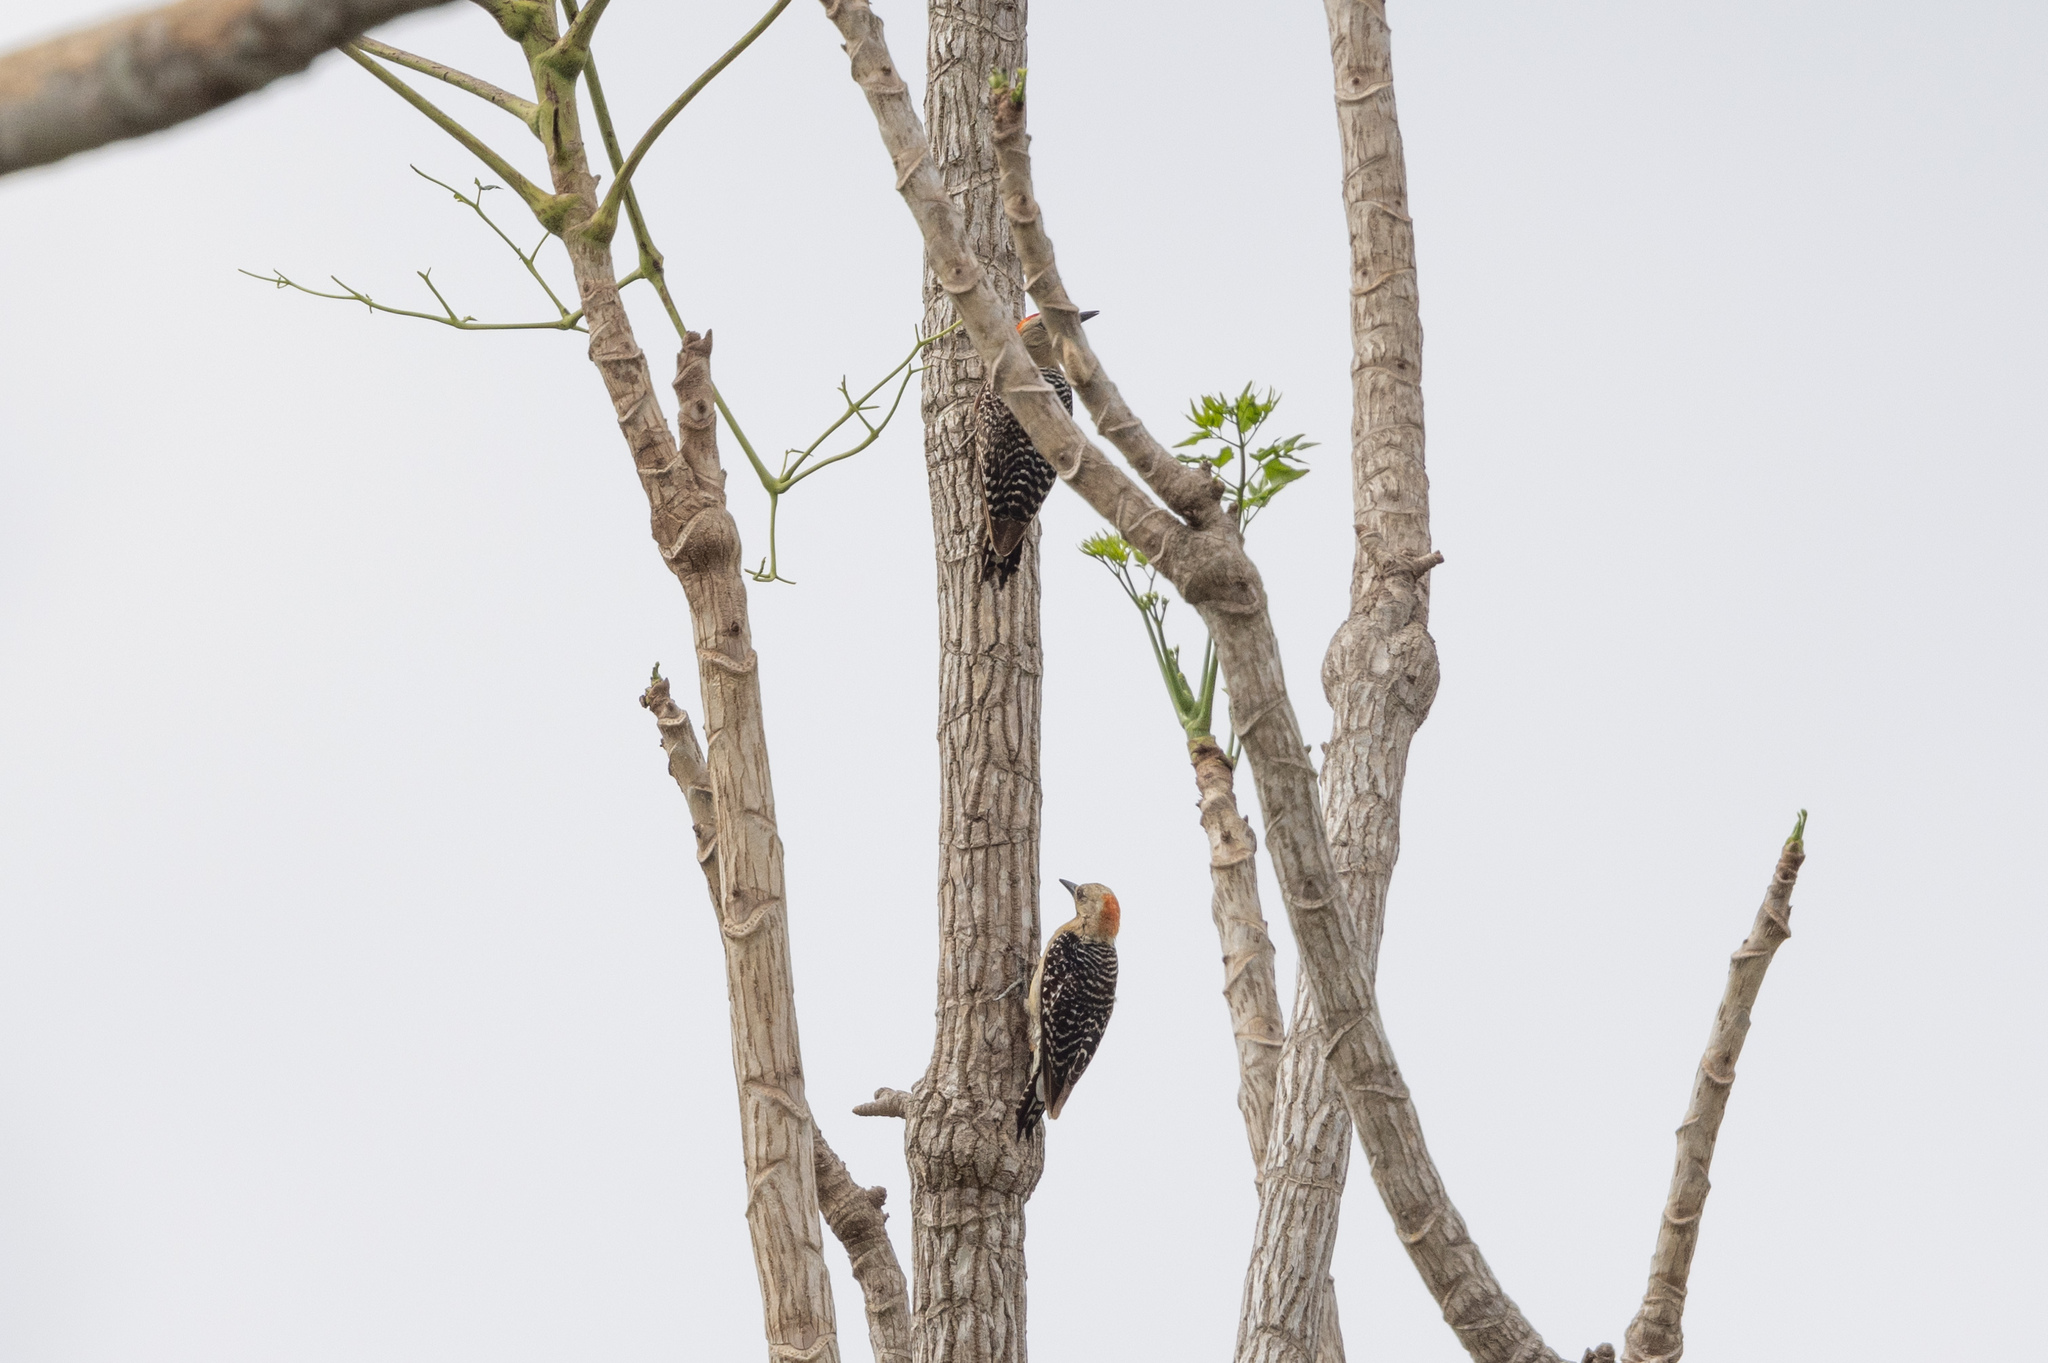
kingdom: Animalia
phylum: Chordata
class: Aves
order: Piciformes
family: Picidae
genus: Melanerpes
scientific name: Melanerpes rubricapillus
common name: Red-crowned woodpecker
